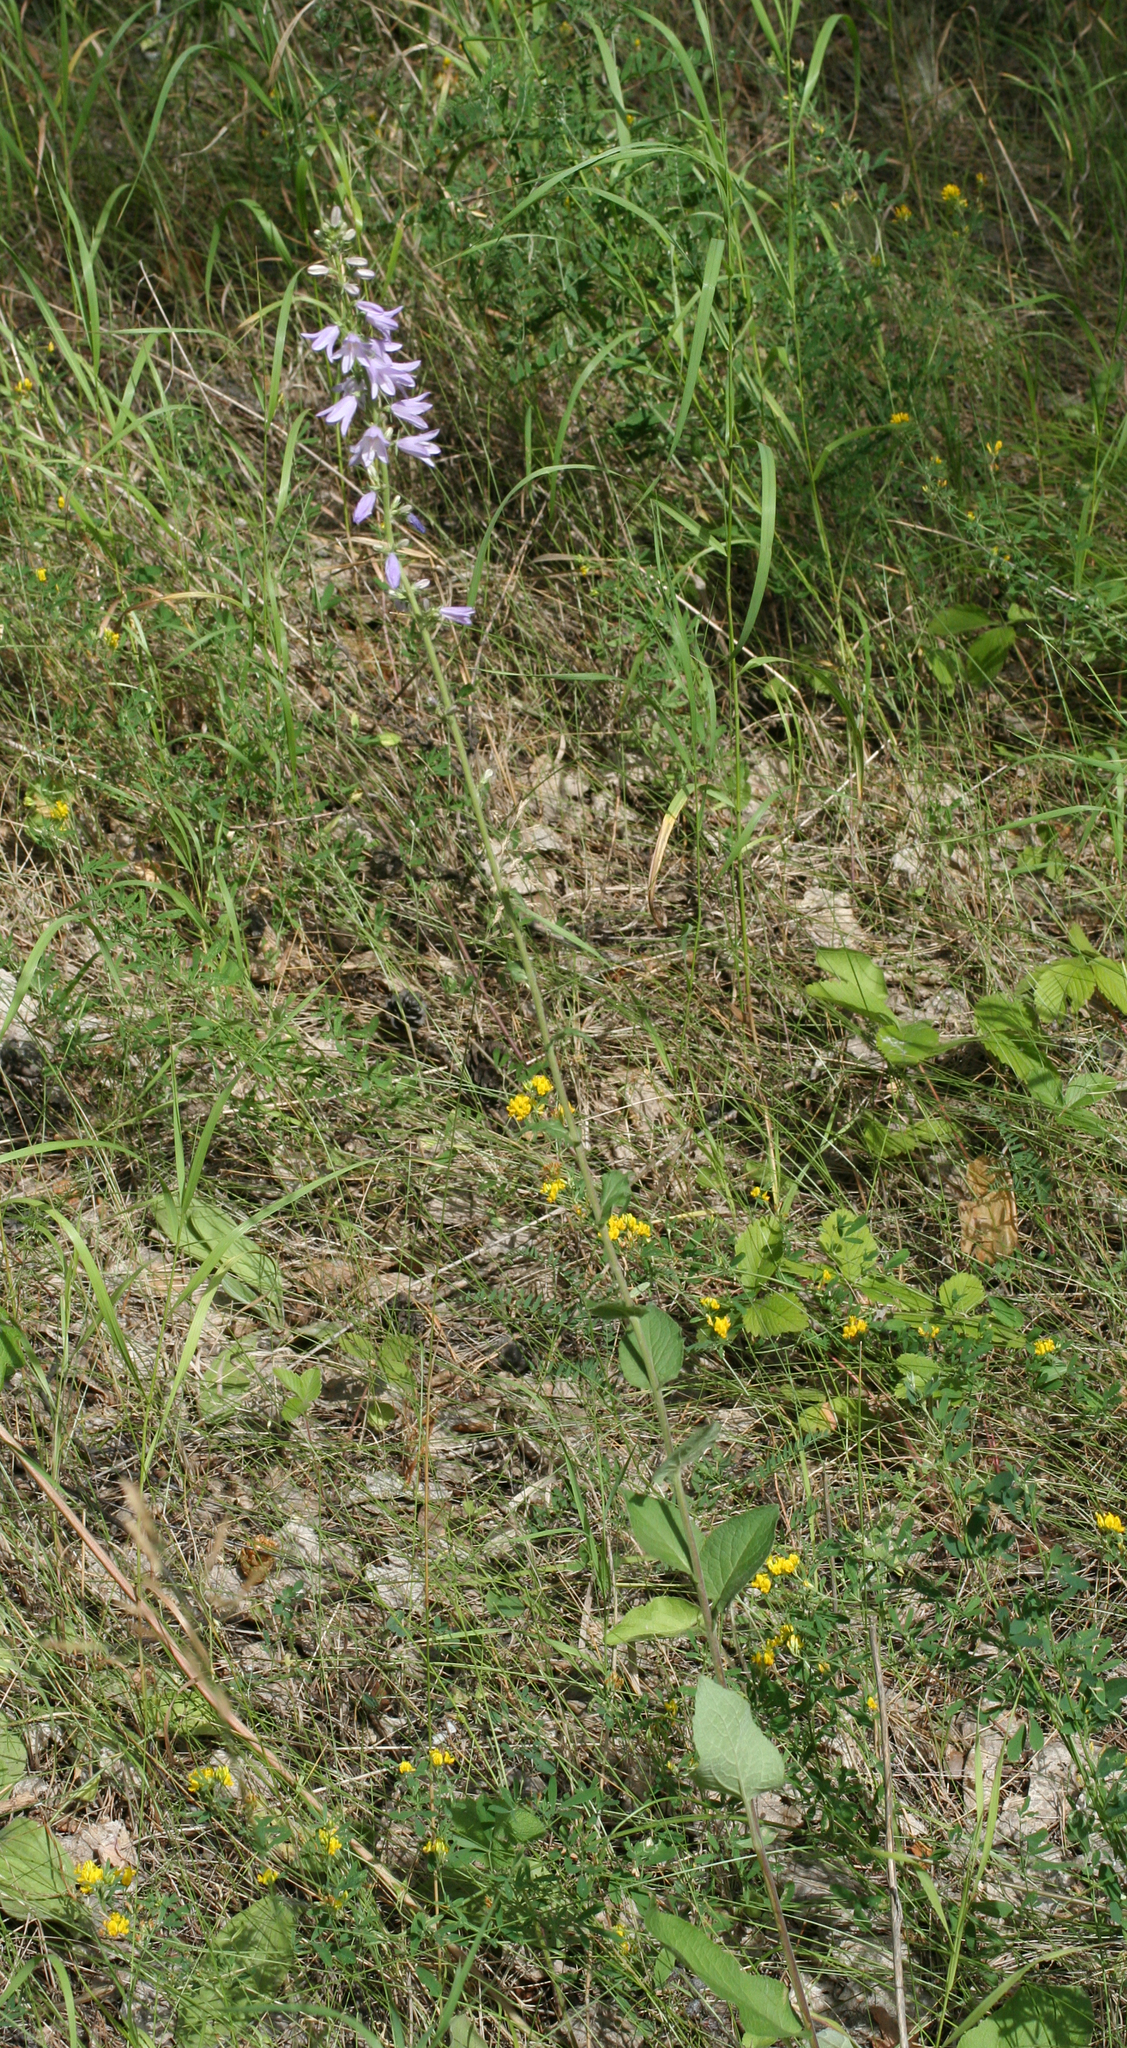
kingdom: Plantae
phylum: Tracheophyta
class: Magnoliopsida
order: Asterales
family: Campanulaceae
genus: Campanula
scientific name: Campanula bononiensis
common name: Pale bellflower
